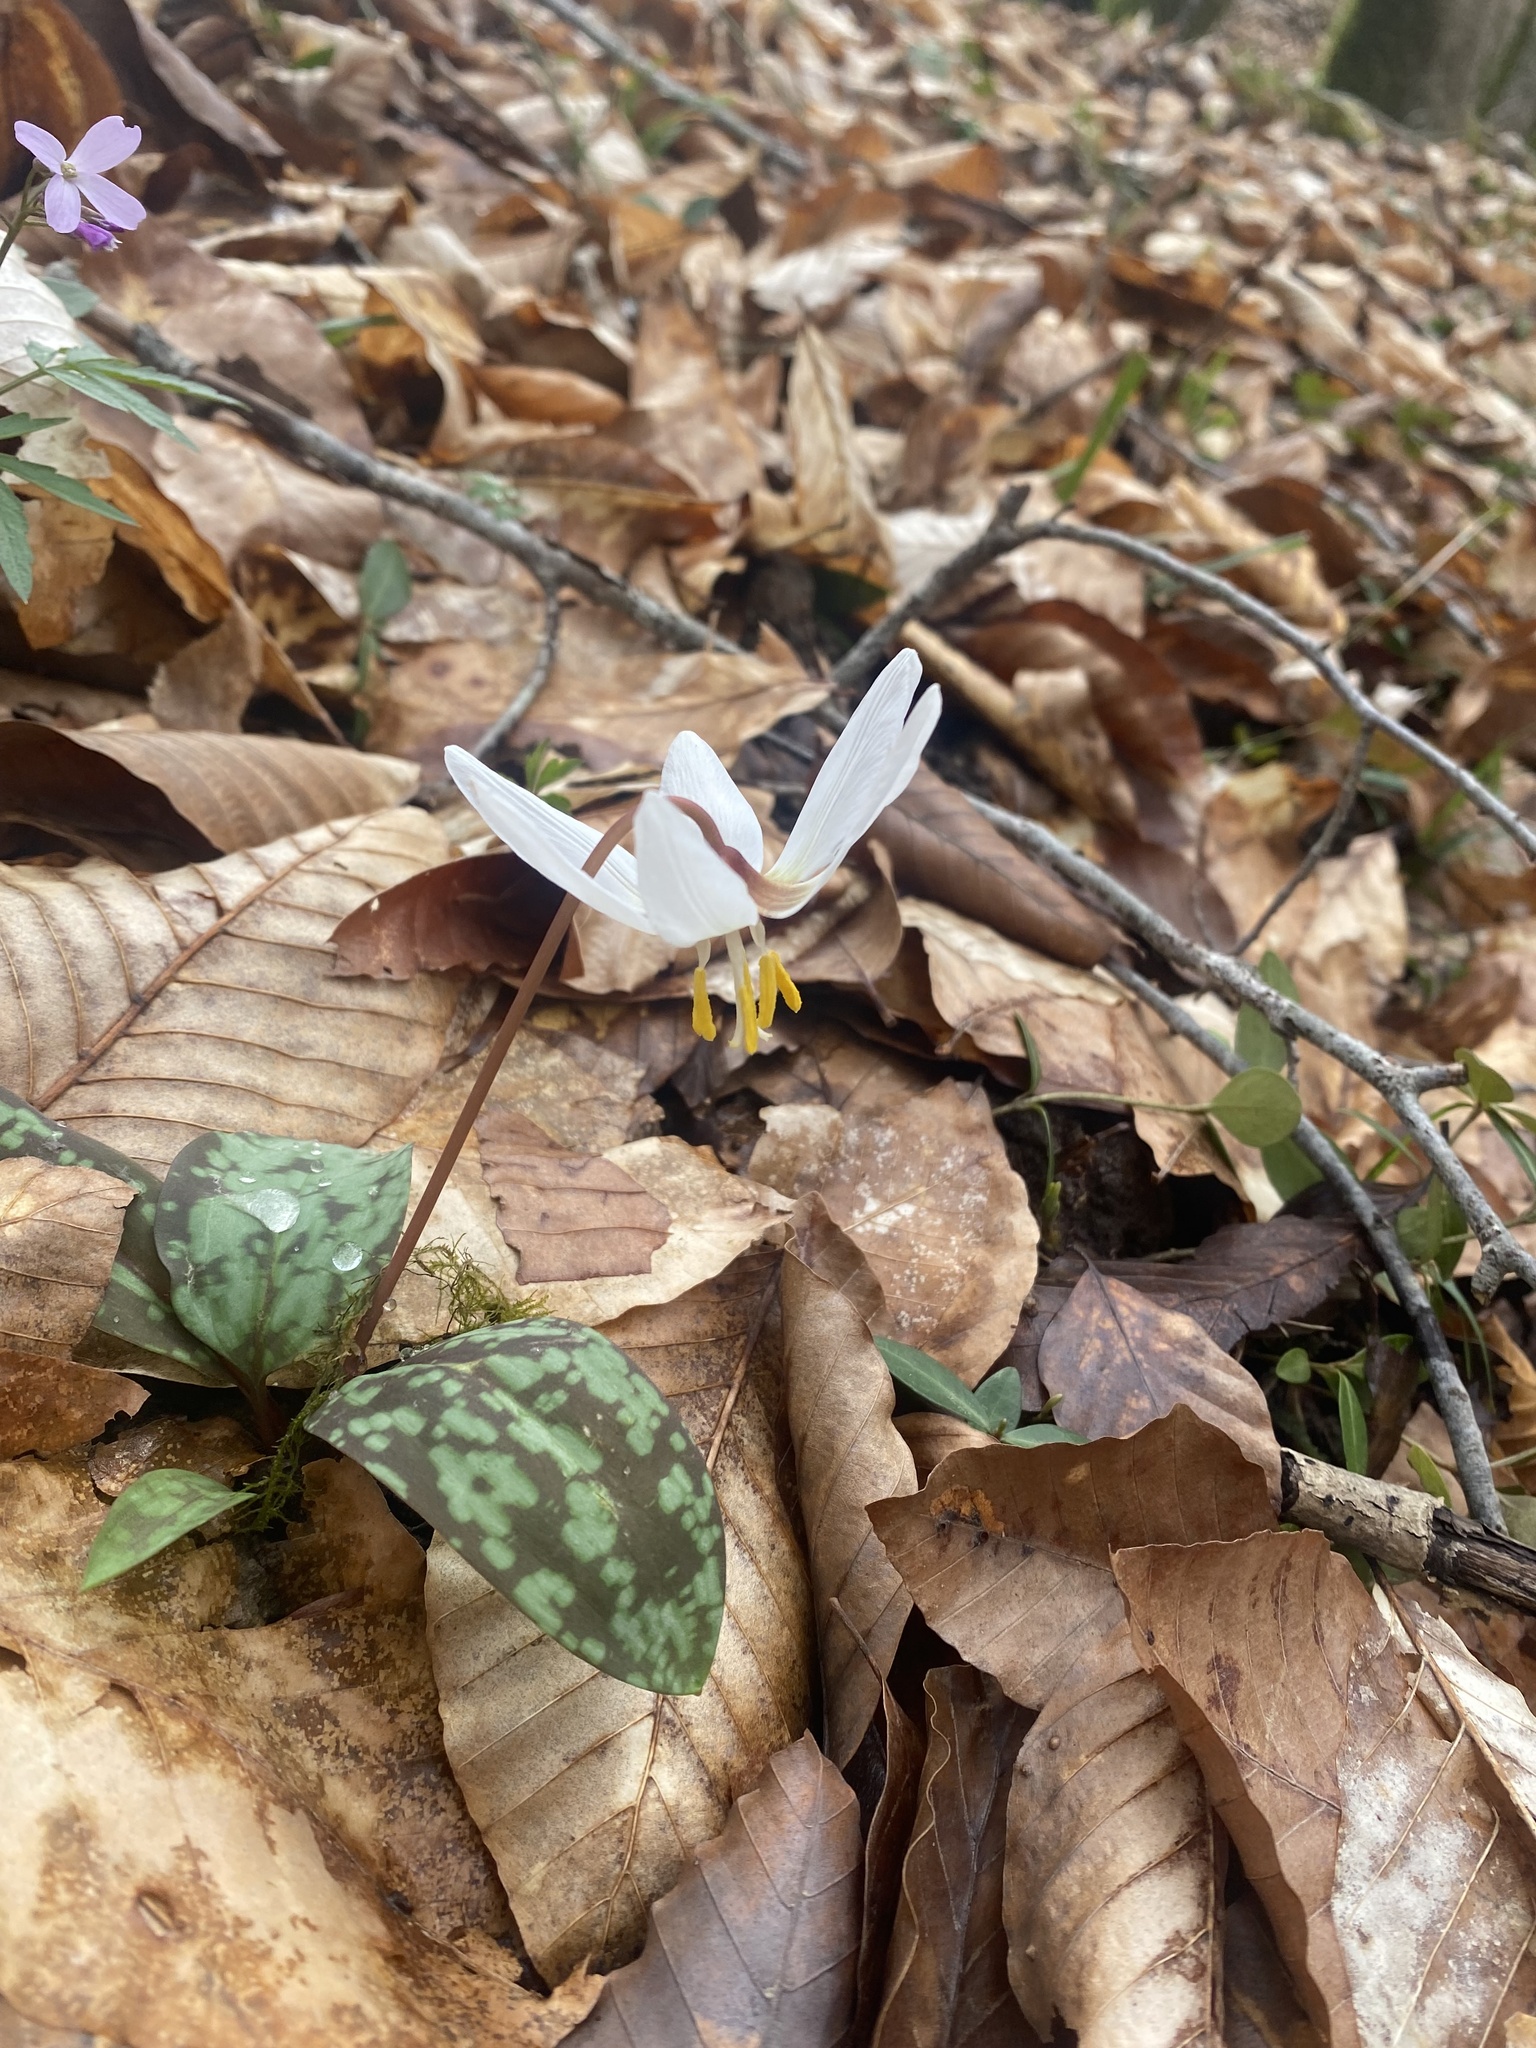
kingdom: Plantae
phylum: Tracheophyta
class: Liliopsida
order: Liliales
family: Liliaceae
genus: Erythronium
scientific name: Erythronium caucasicum
